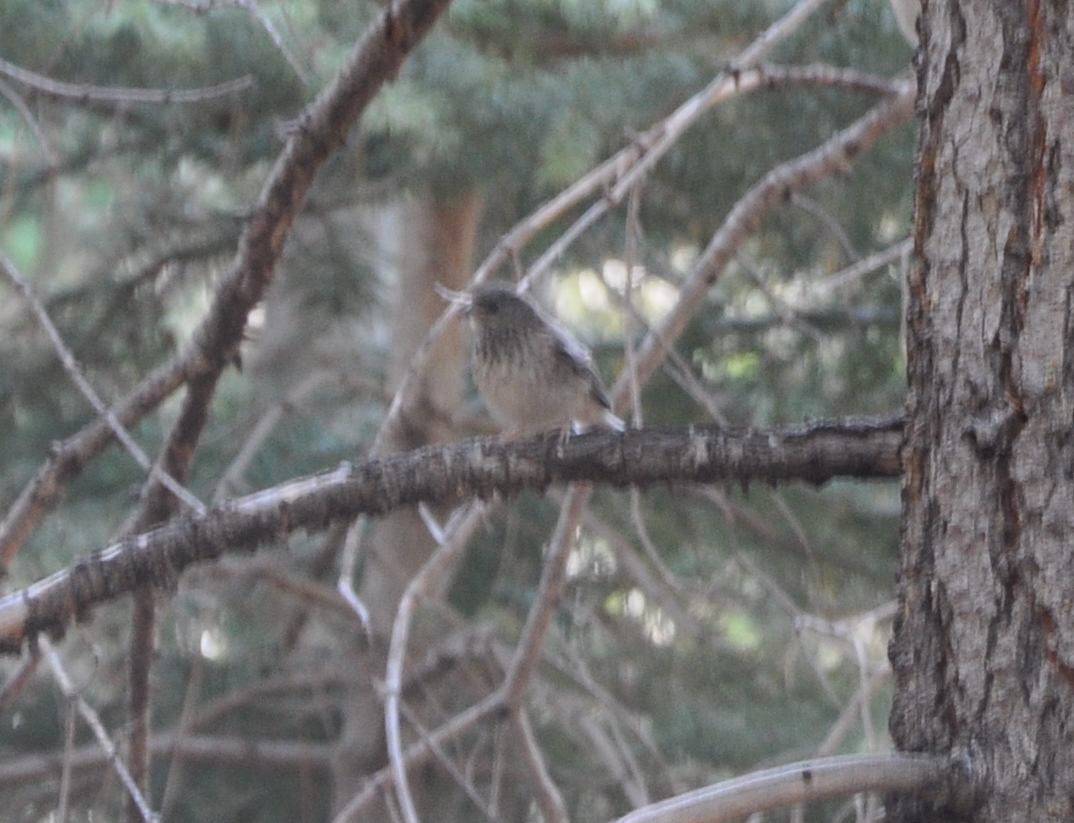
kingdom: Animalia
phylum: Chordata
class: Aves
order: Passeriformes
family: Passerellidae
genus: Junco
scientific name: Junco hyemalis
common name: Dark-eyed junco
